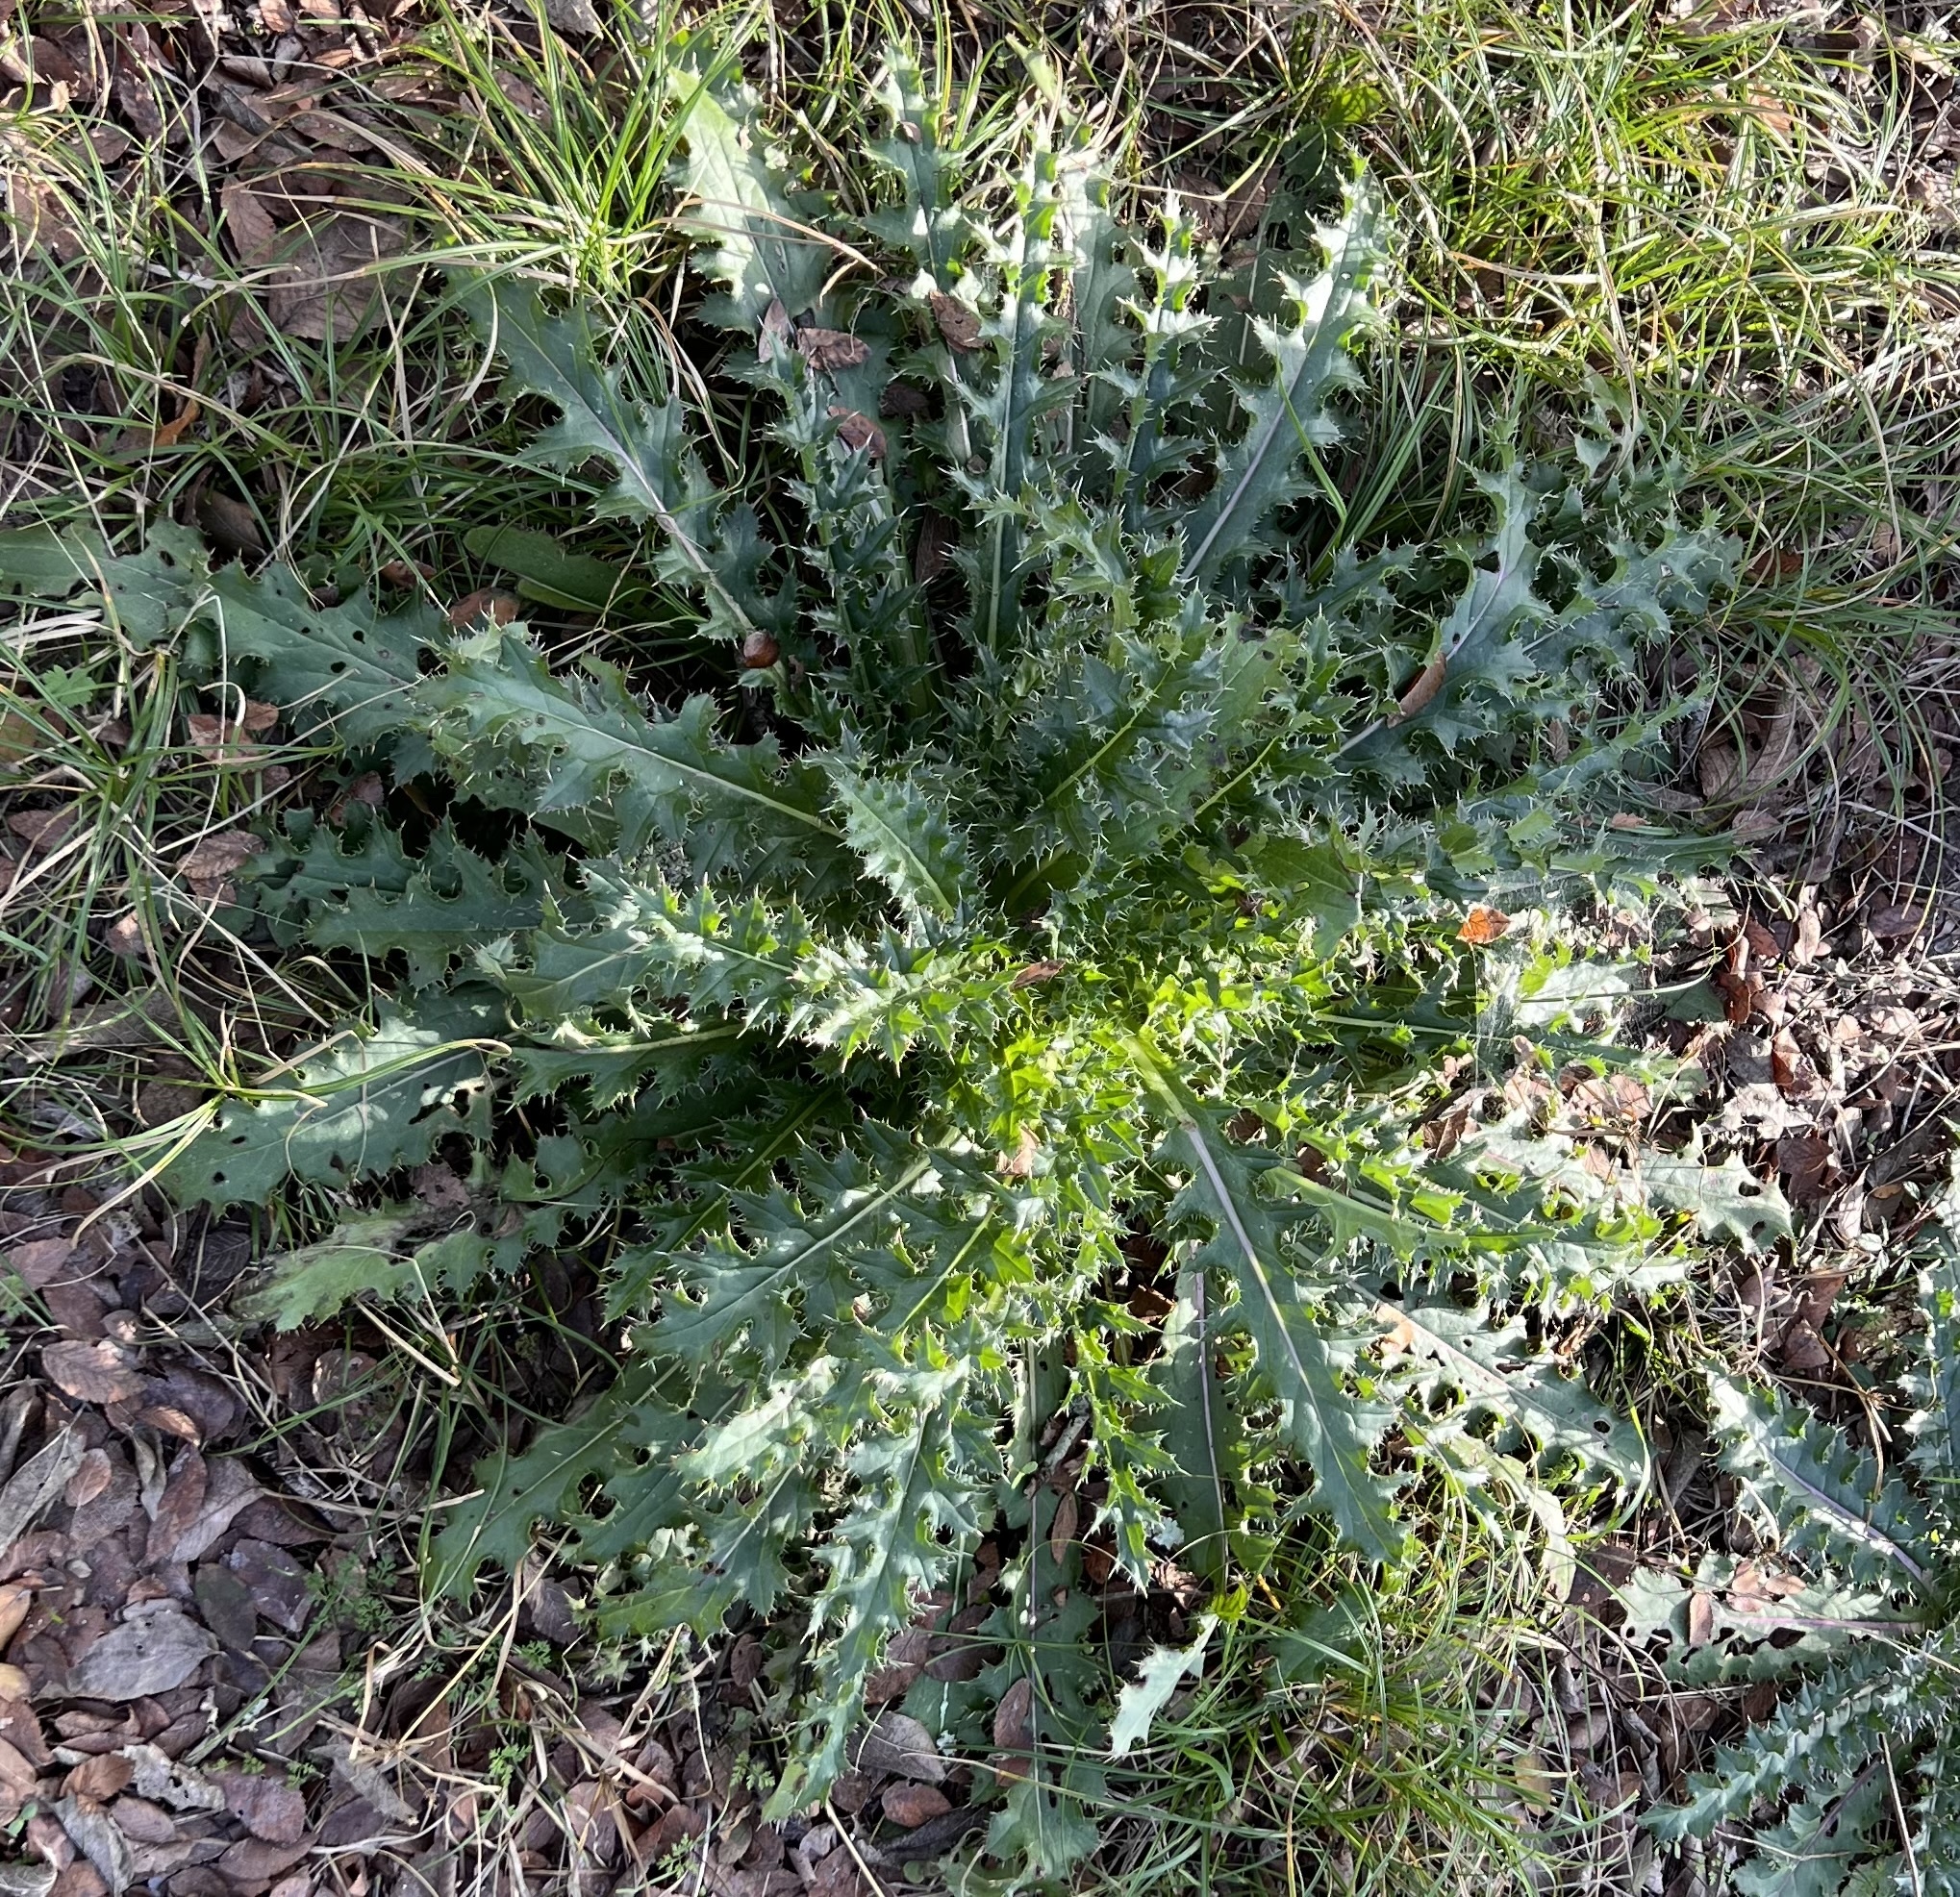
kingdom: Plantae
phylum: Tracheophyta
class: Magnoliopsida
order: Asterales
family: Asteraceae
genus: Cirsium
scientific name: Cirsium horridulum
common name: Bristly thistle
